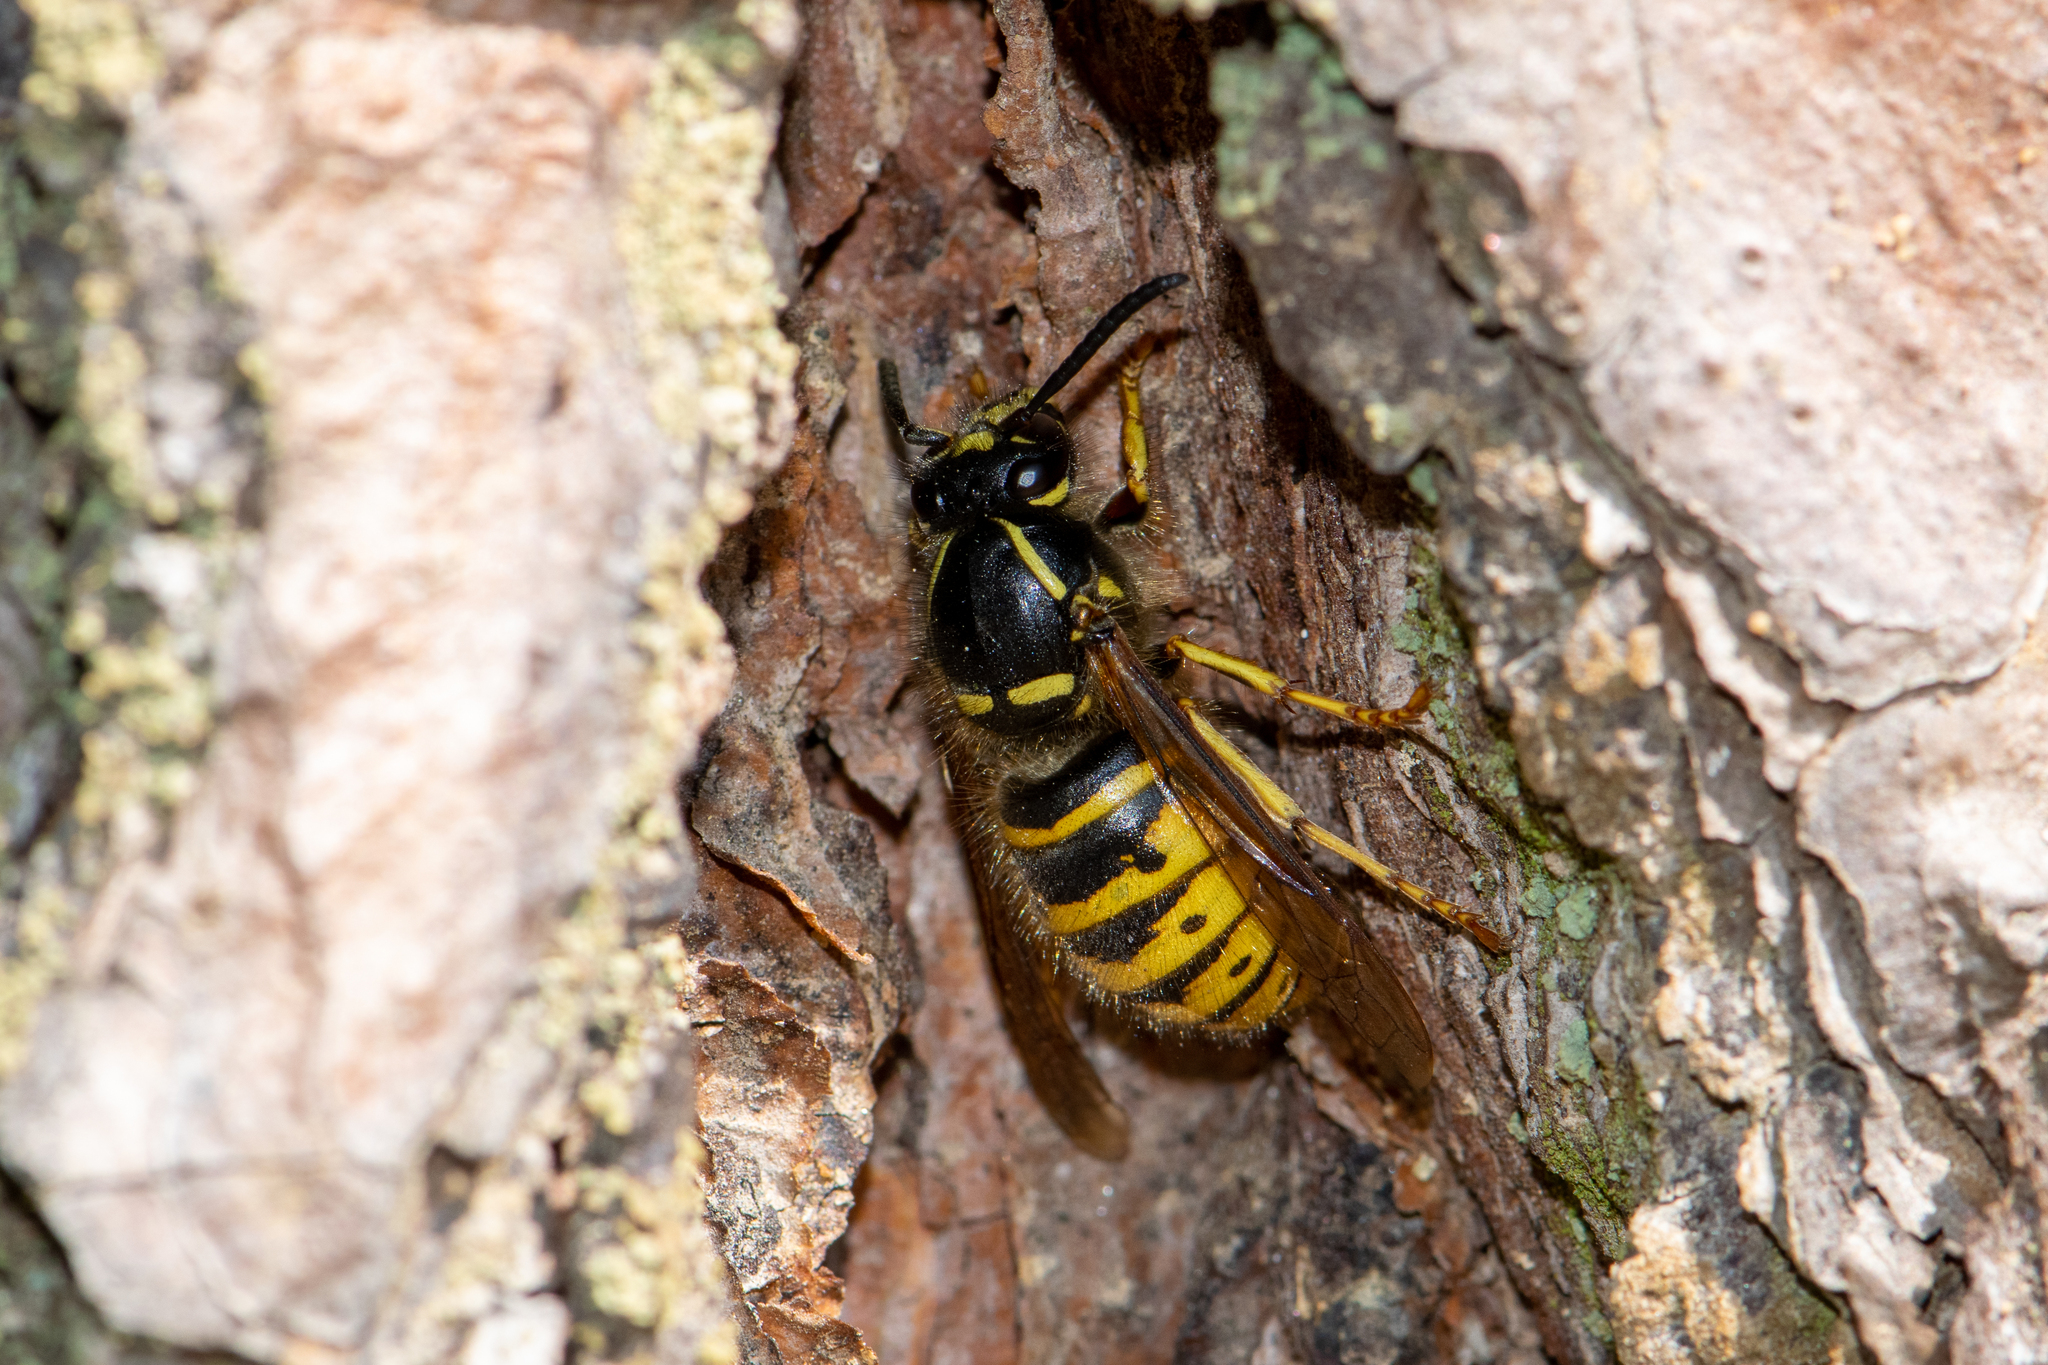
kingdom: Animalia
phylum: Arthropoda
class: Insecta
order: Hymenoptera
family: Vespidae
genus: Dolichovespula
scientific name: Dolichovespula saxonica
